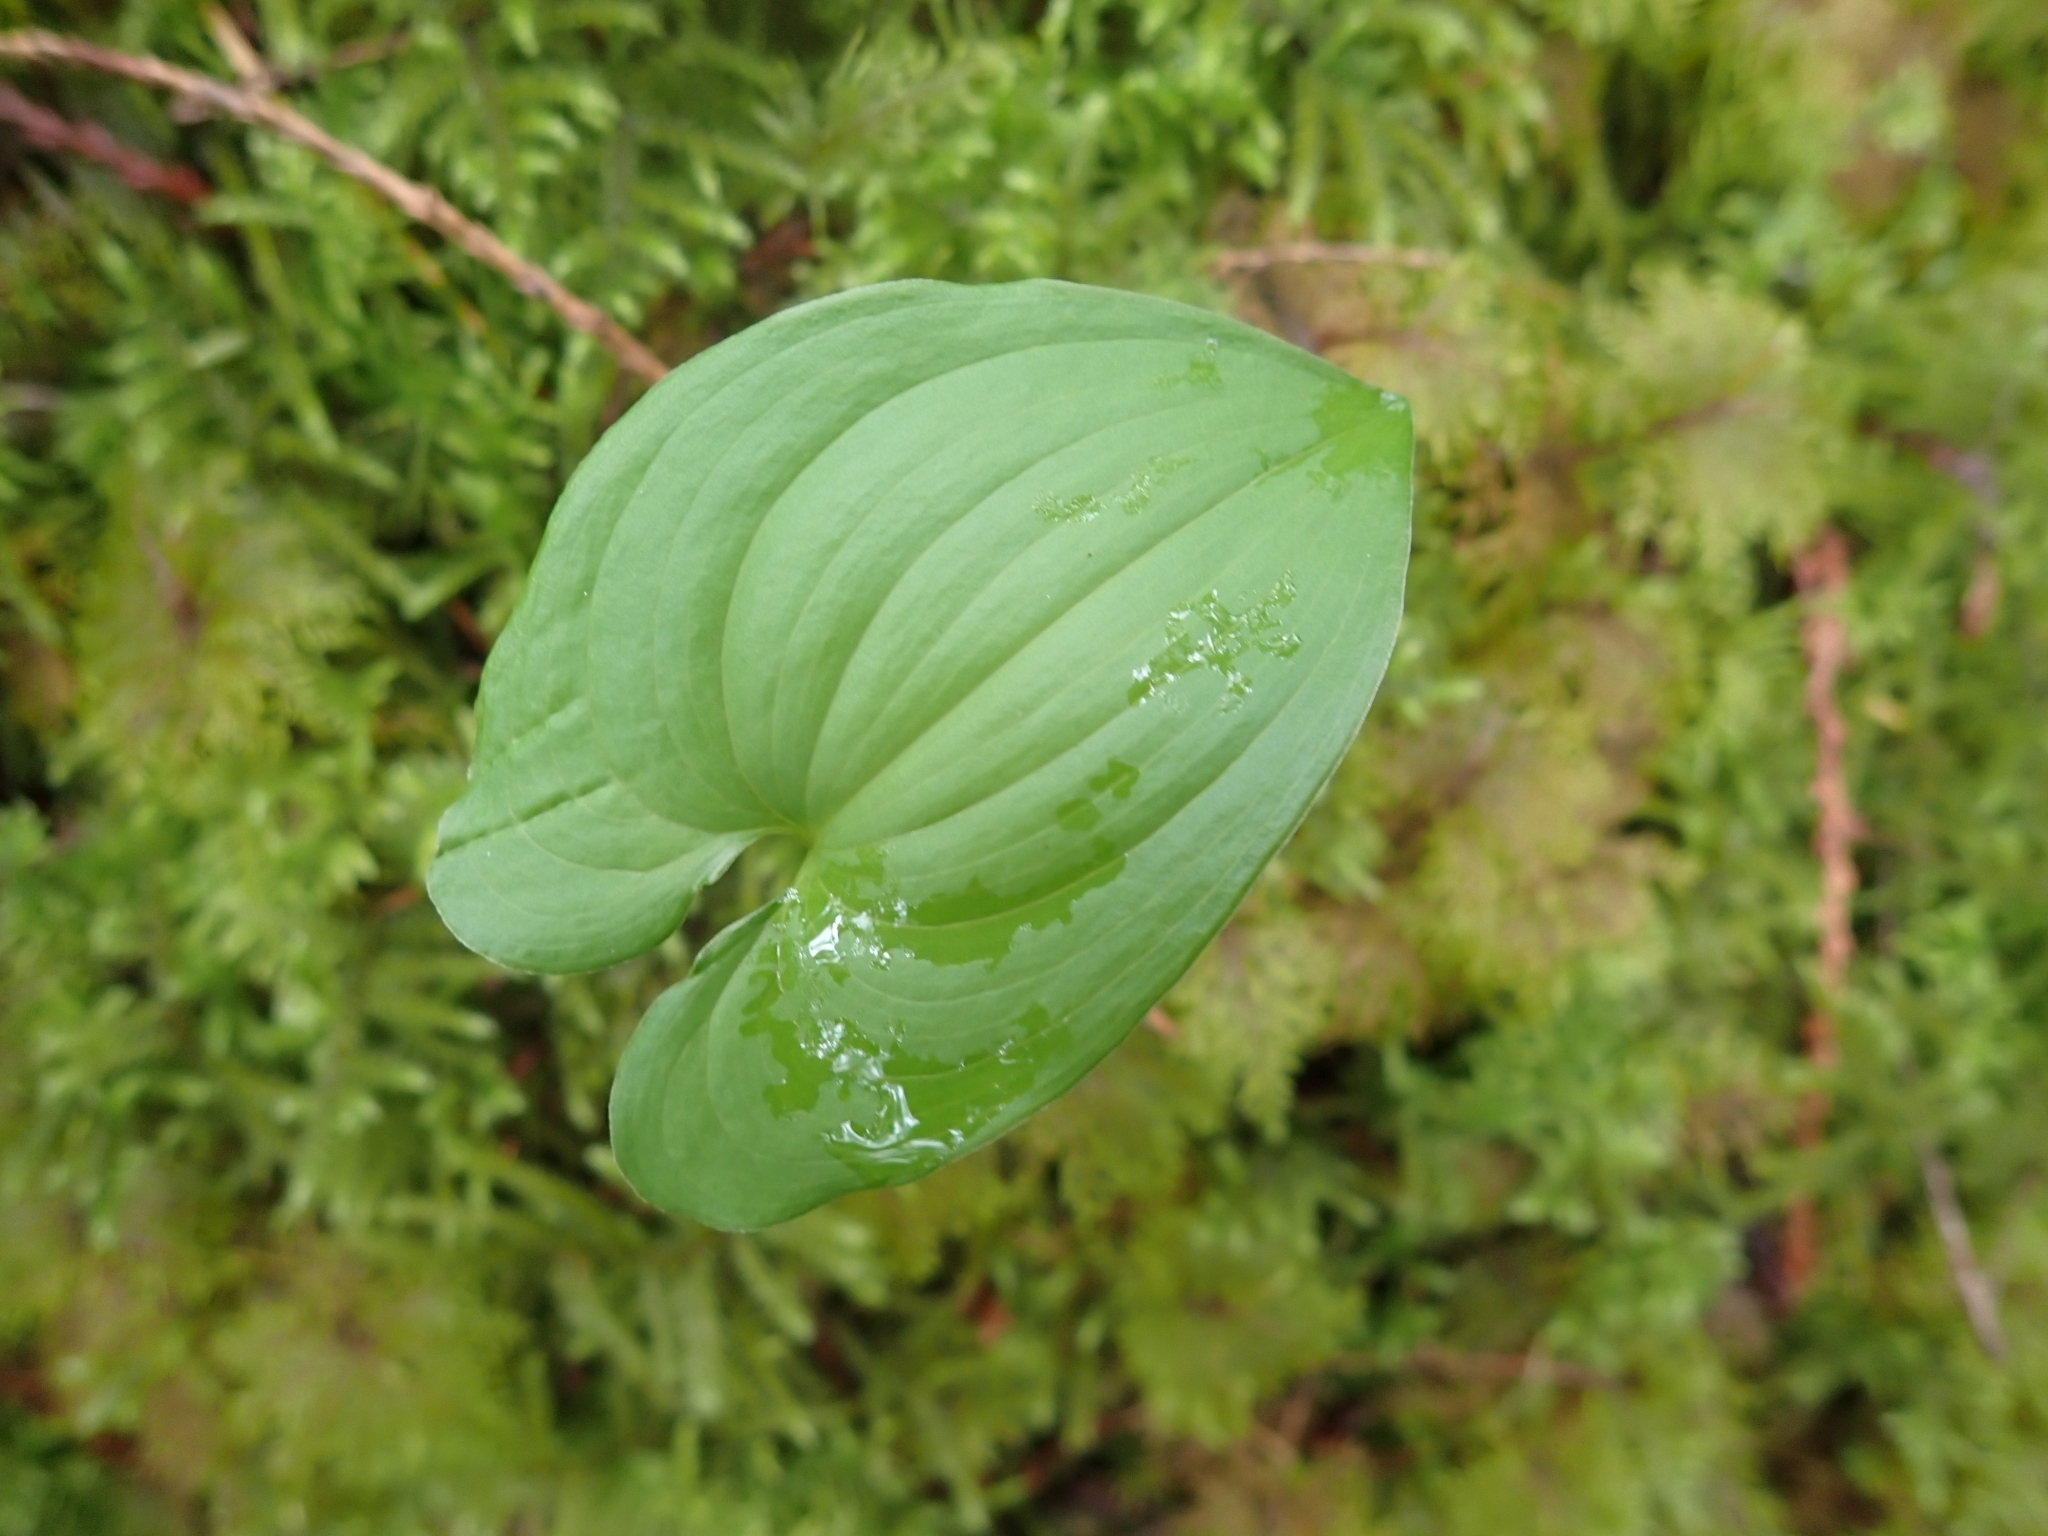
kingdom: Plantae
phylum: Tracheophyta
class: Liliopsida
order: Asparagales
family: Asparagaceae
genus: Maianthemum
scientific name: Maianthemum dilatatum
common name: False lily-of-the-valley
